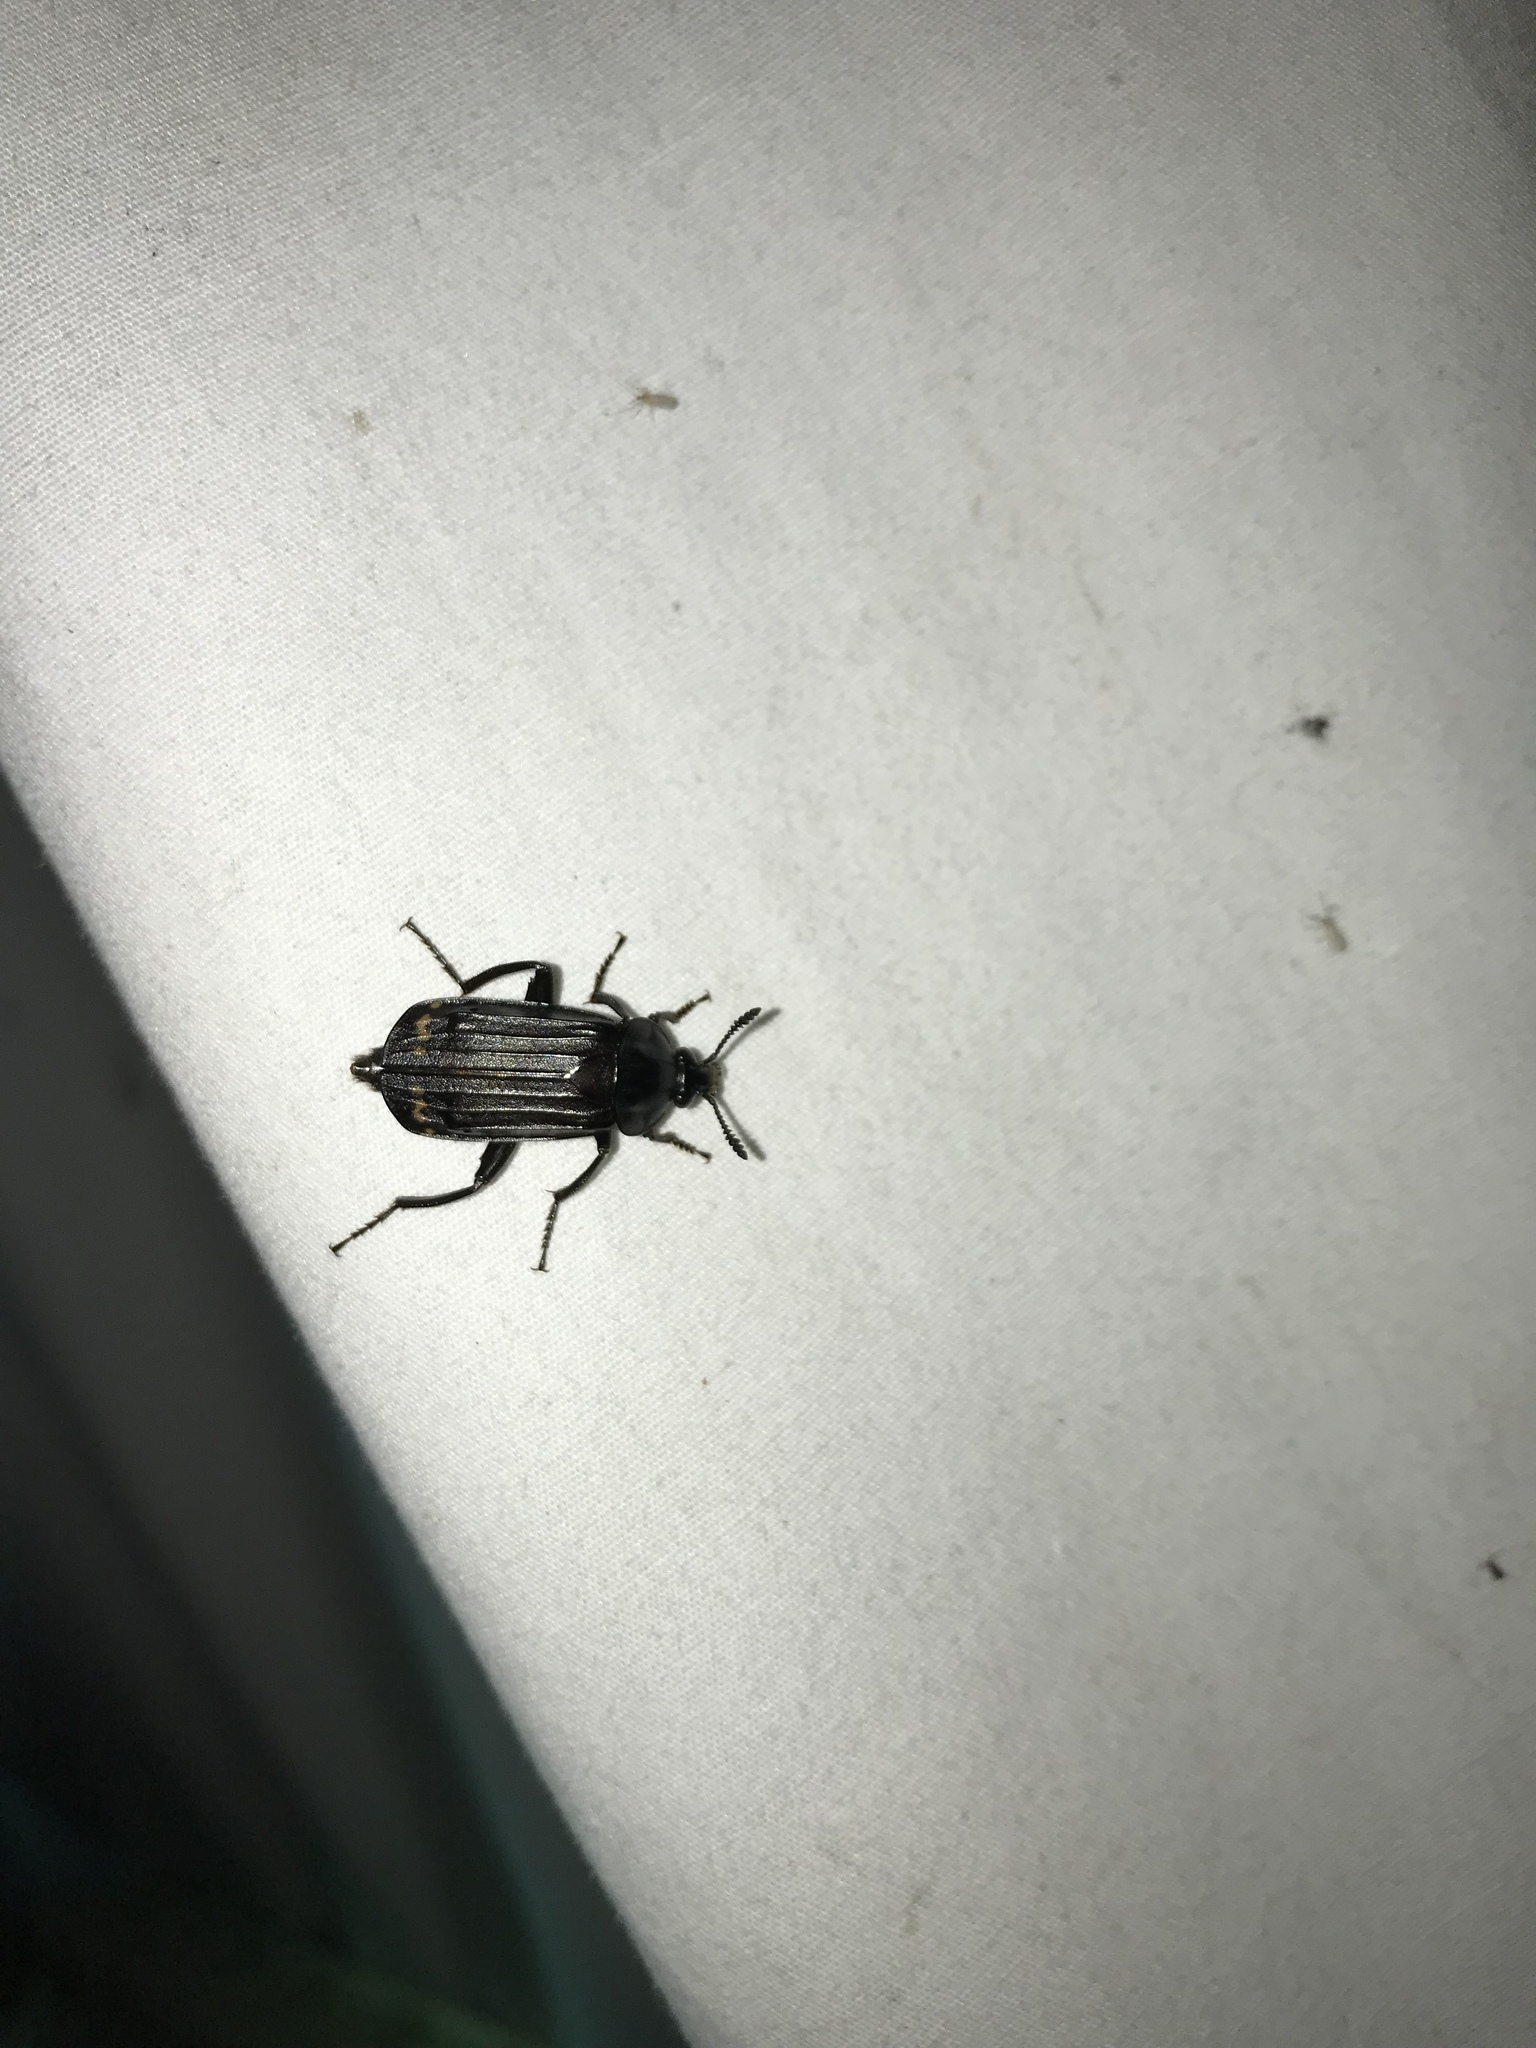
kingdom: Animalia
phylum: Arthropoda
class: Insecta
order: Coleoptera
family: Staphylinidae
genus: Necrodes
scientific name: Necrodes surinamensis
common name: Red-lined carrion beetle
